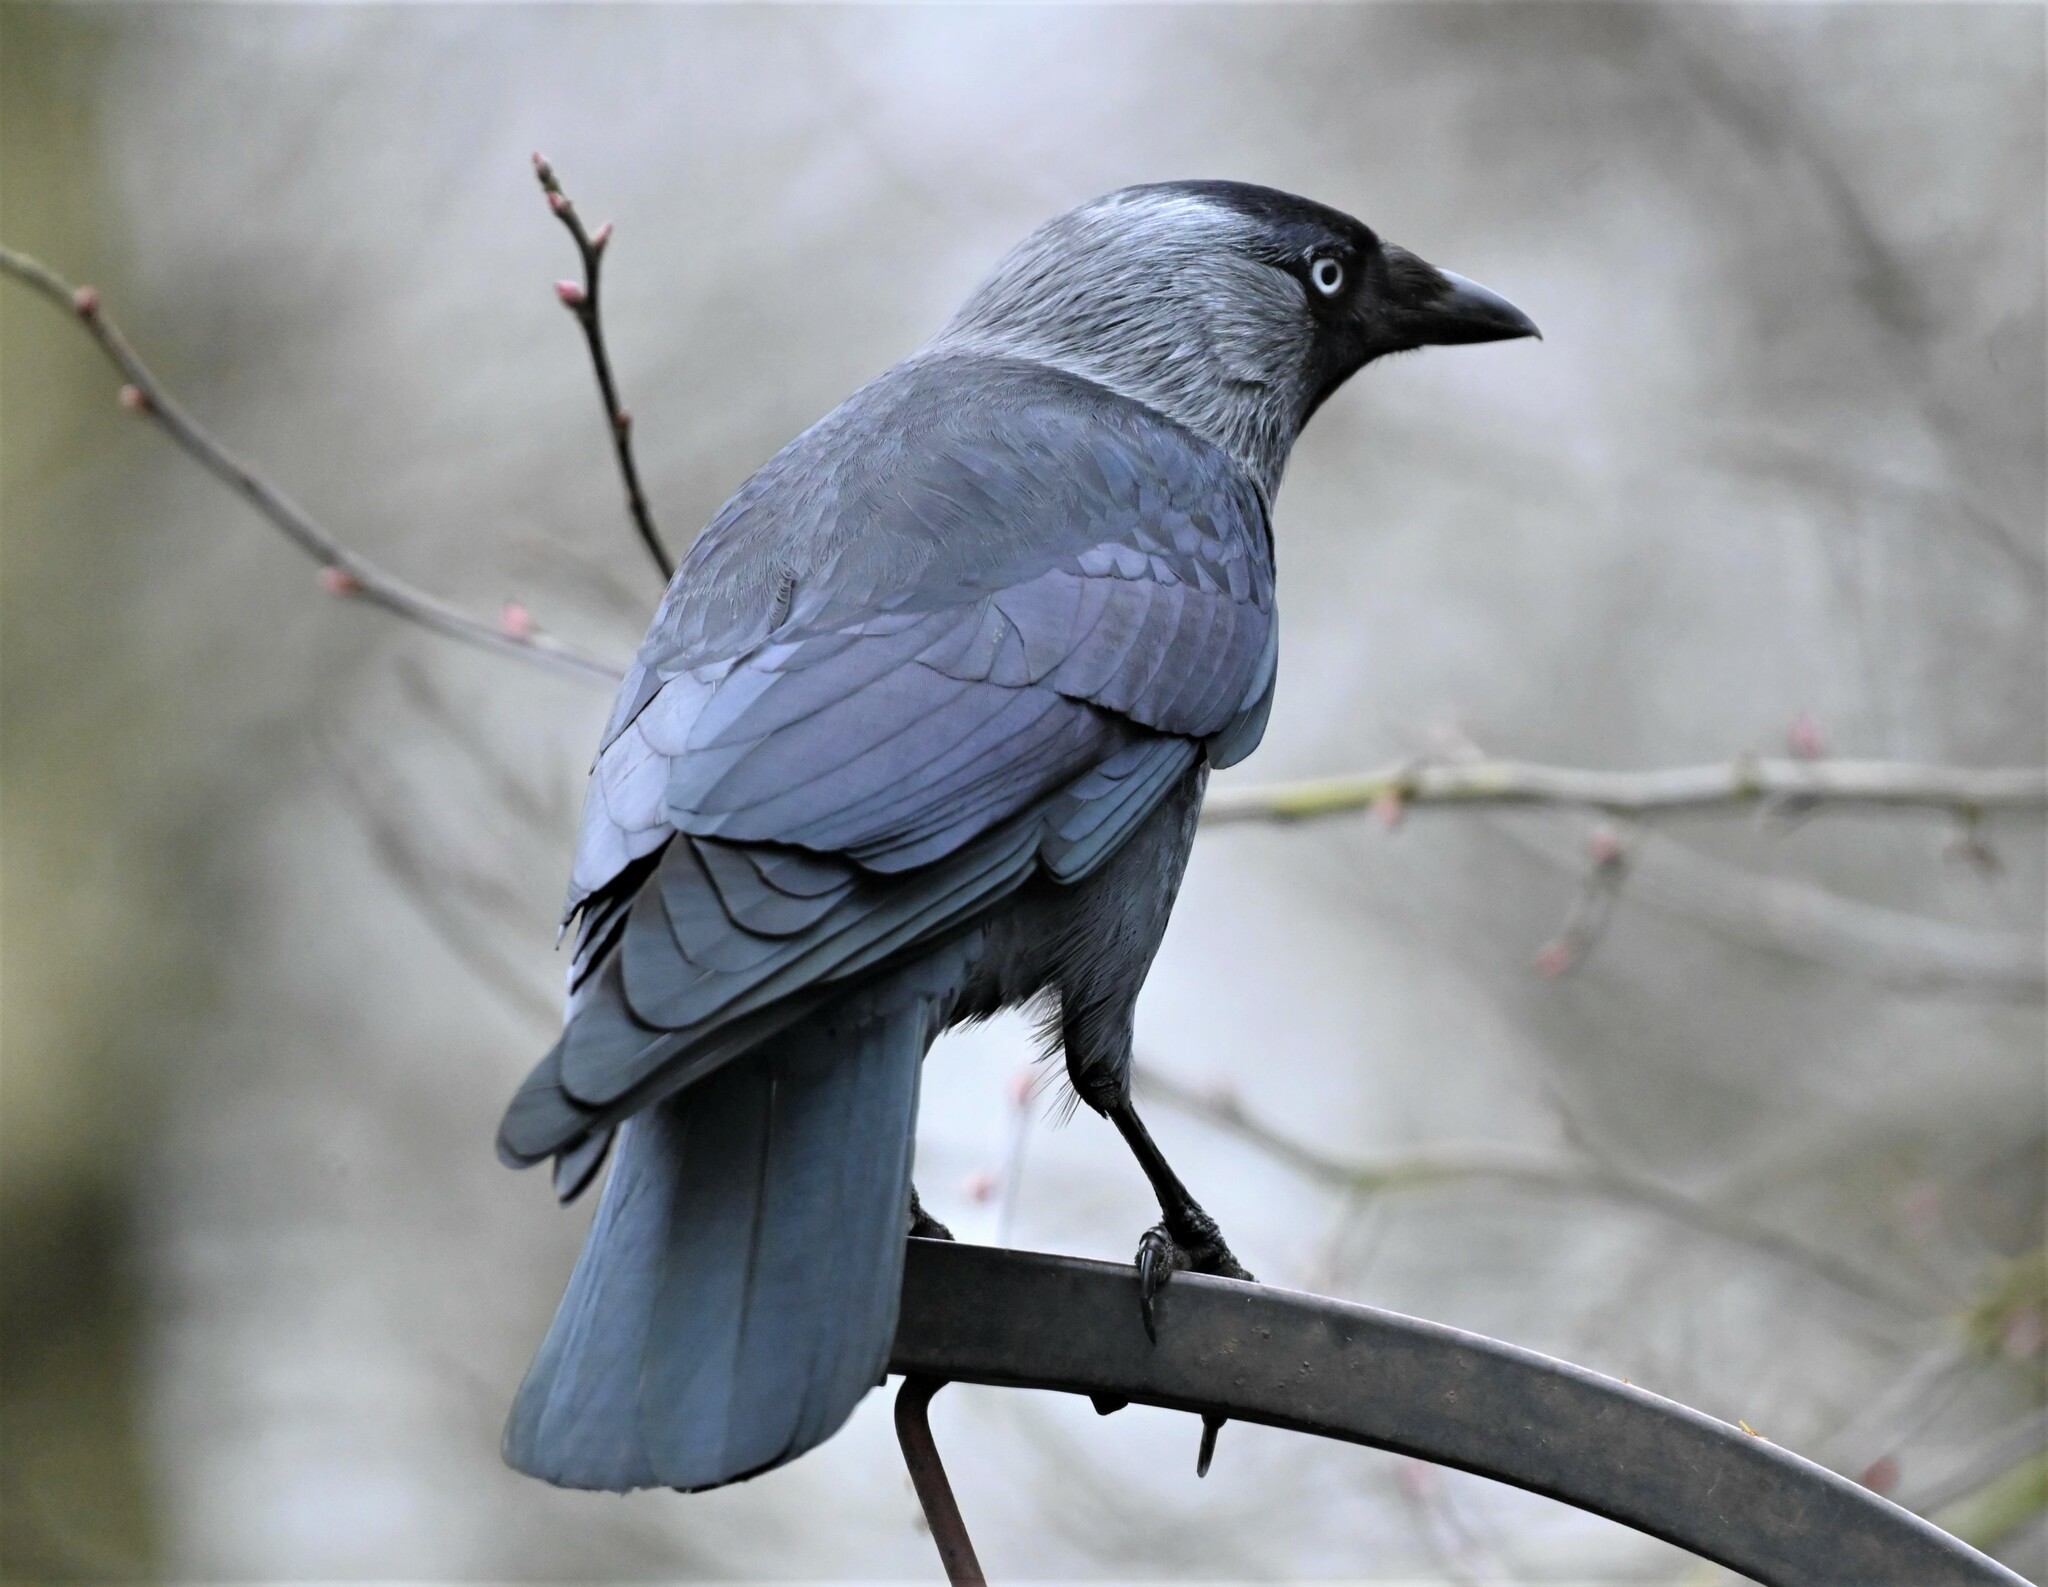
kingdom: Animalia
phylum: Chordata
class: Aves
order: Passeriformes
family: Corvidae
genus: Coloeus
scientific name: Coloeus monedula
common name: Western jackdaw
